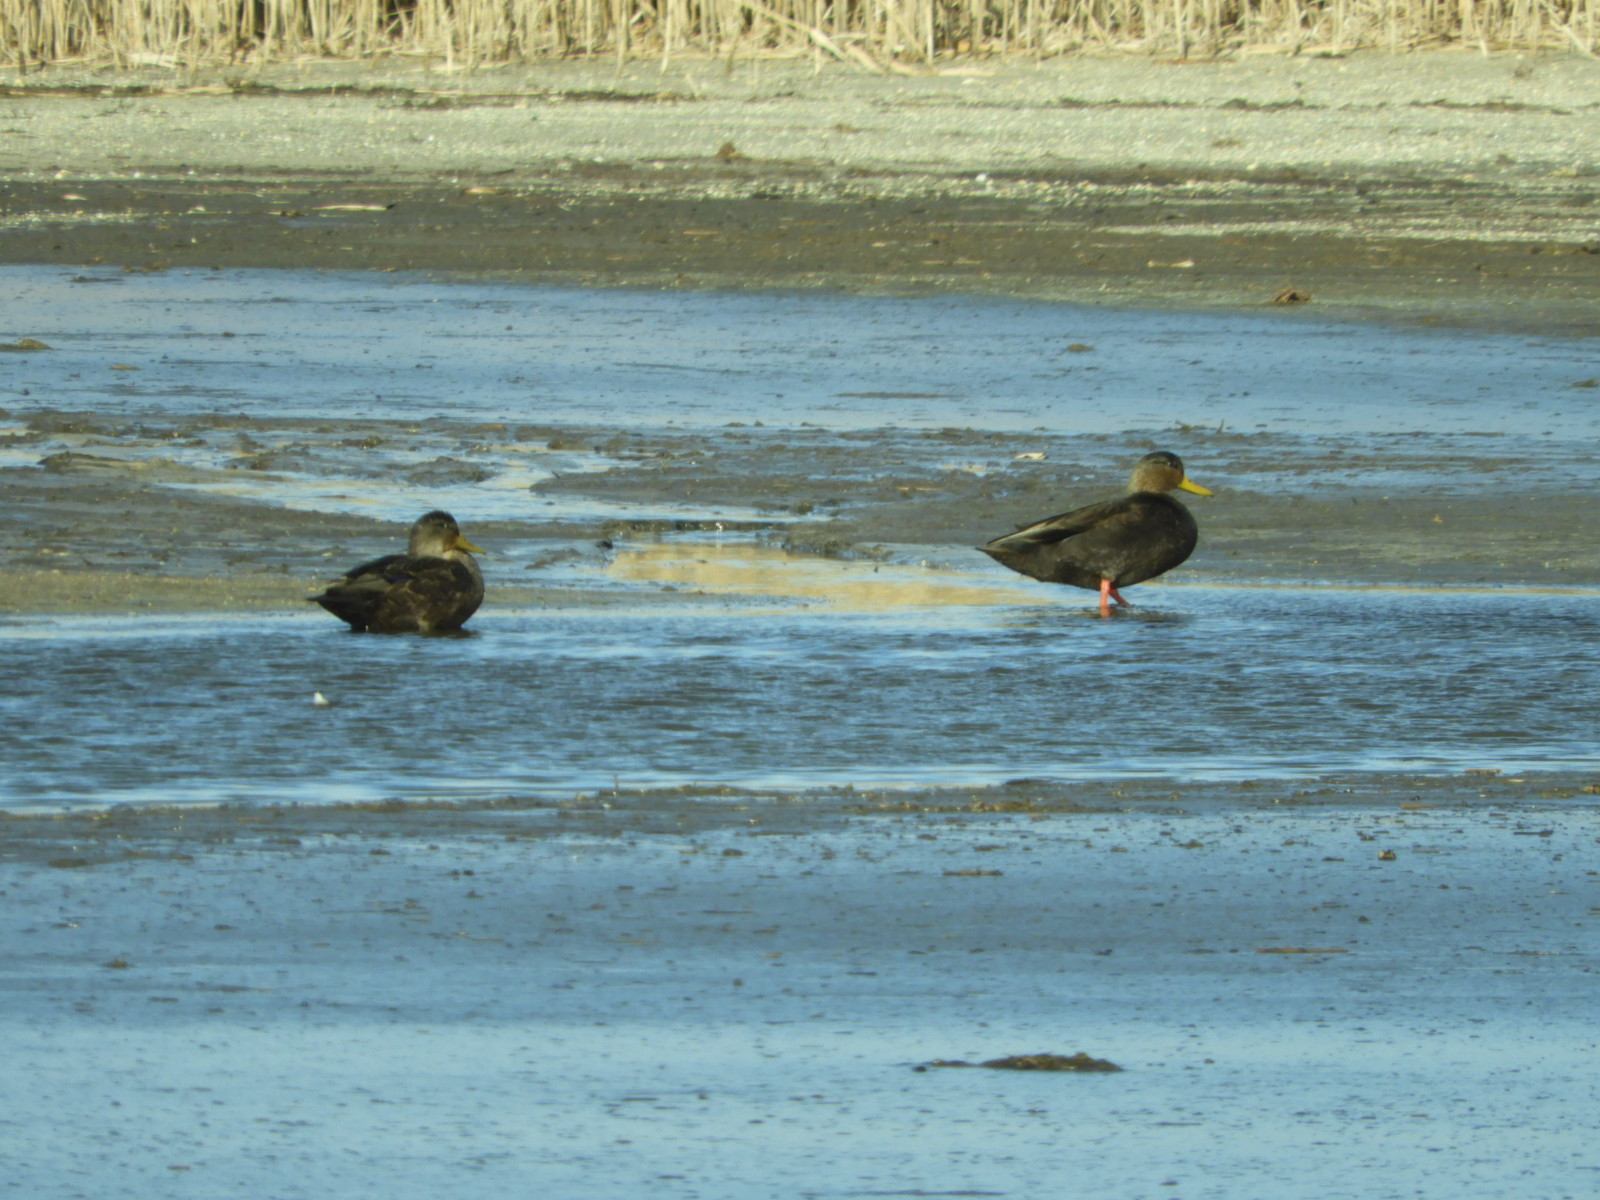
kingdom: Animalia
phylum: Chordata
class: Aves
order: Anseriformes
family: Anatidae
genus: Anas
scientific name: Anas rubripes
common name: American black duck
